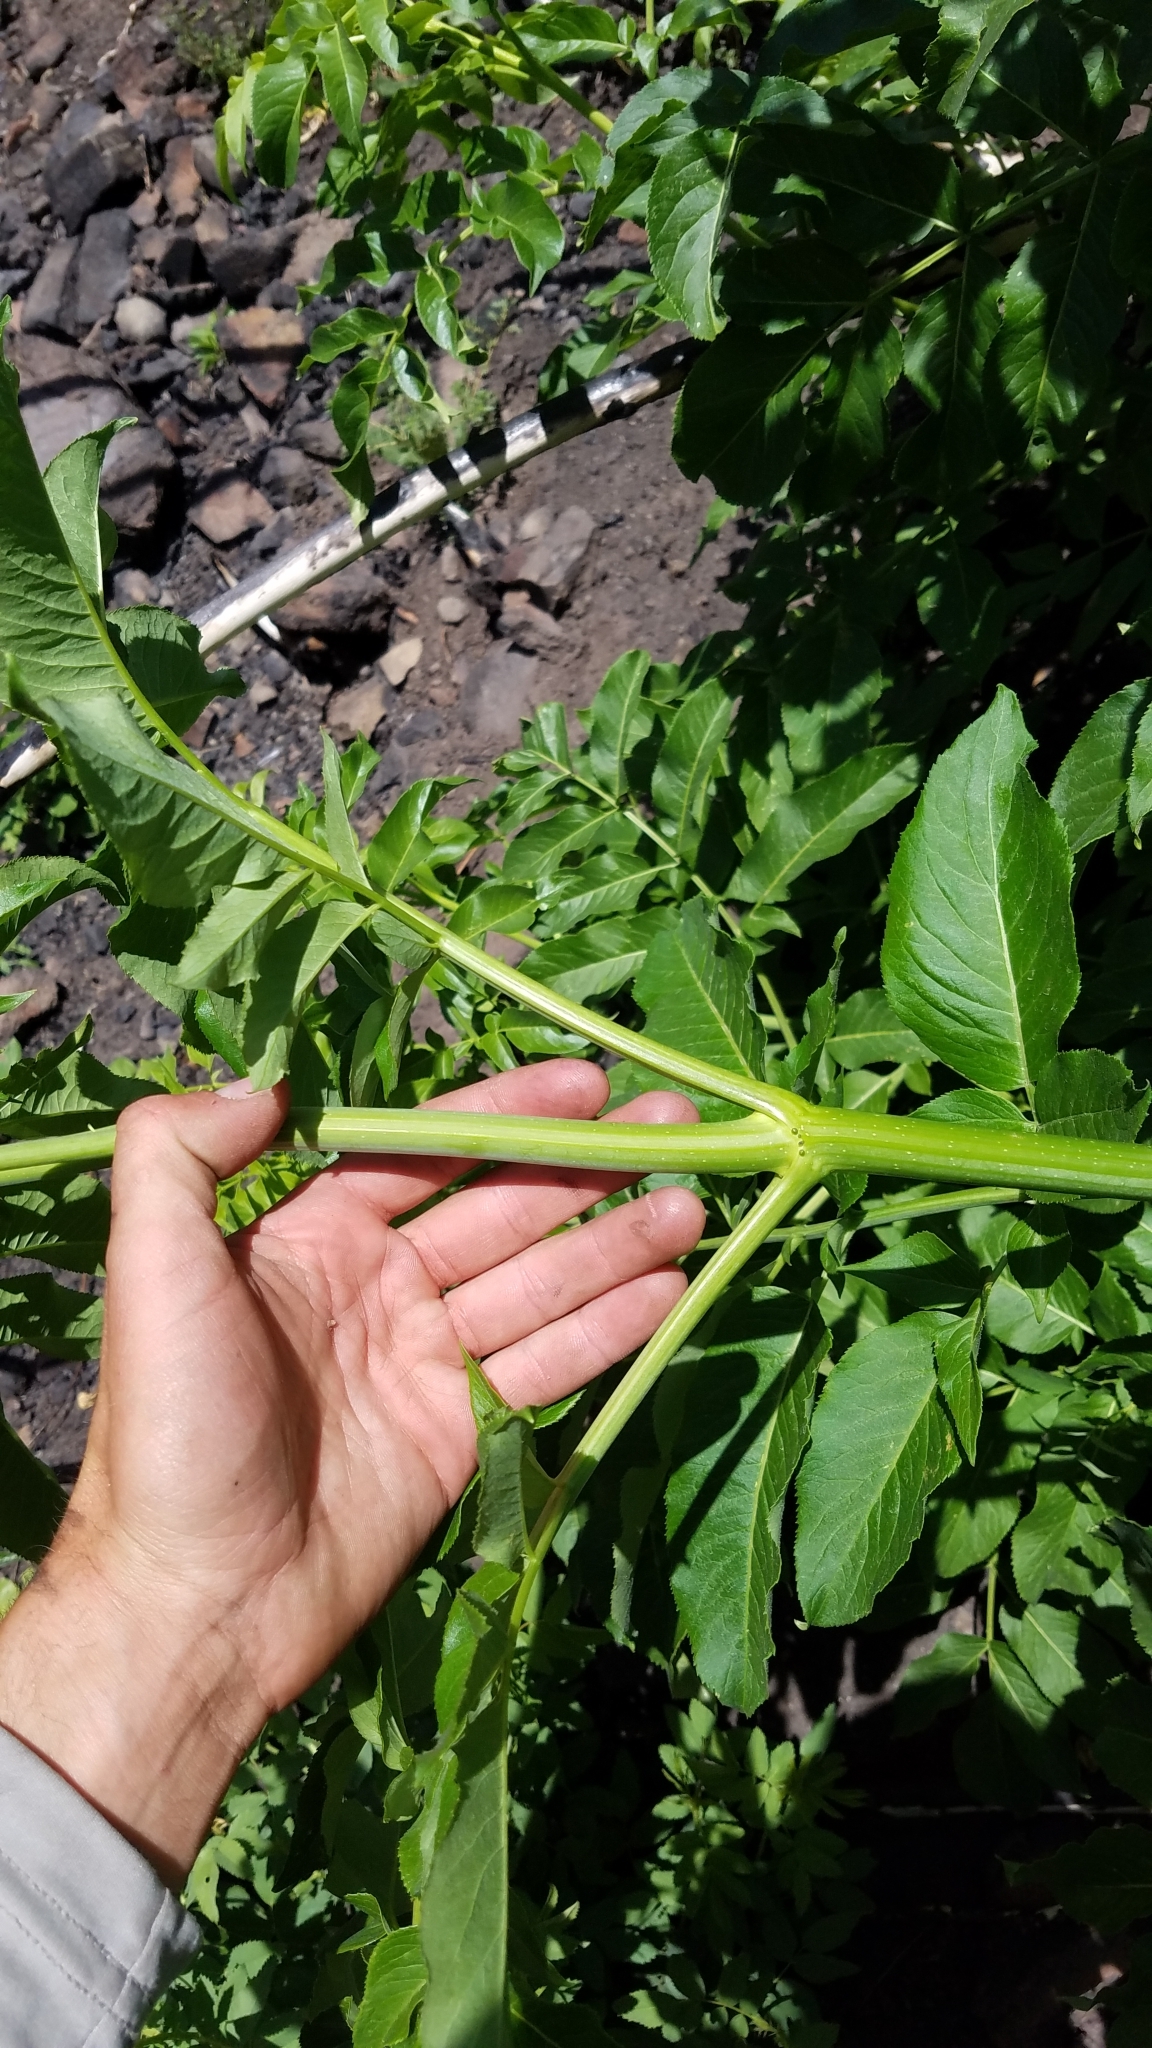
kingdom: Plantae
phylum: Tracheophyta
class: Magnoliopsida
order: Dipsacales
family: Viburnaceae
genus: Sambucus
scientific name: Sambucus cerulea
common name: Blue elder
